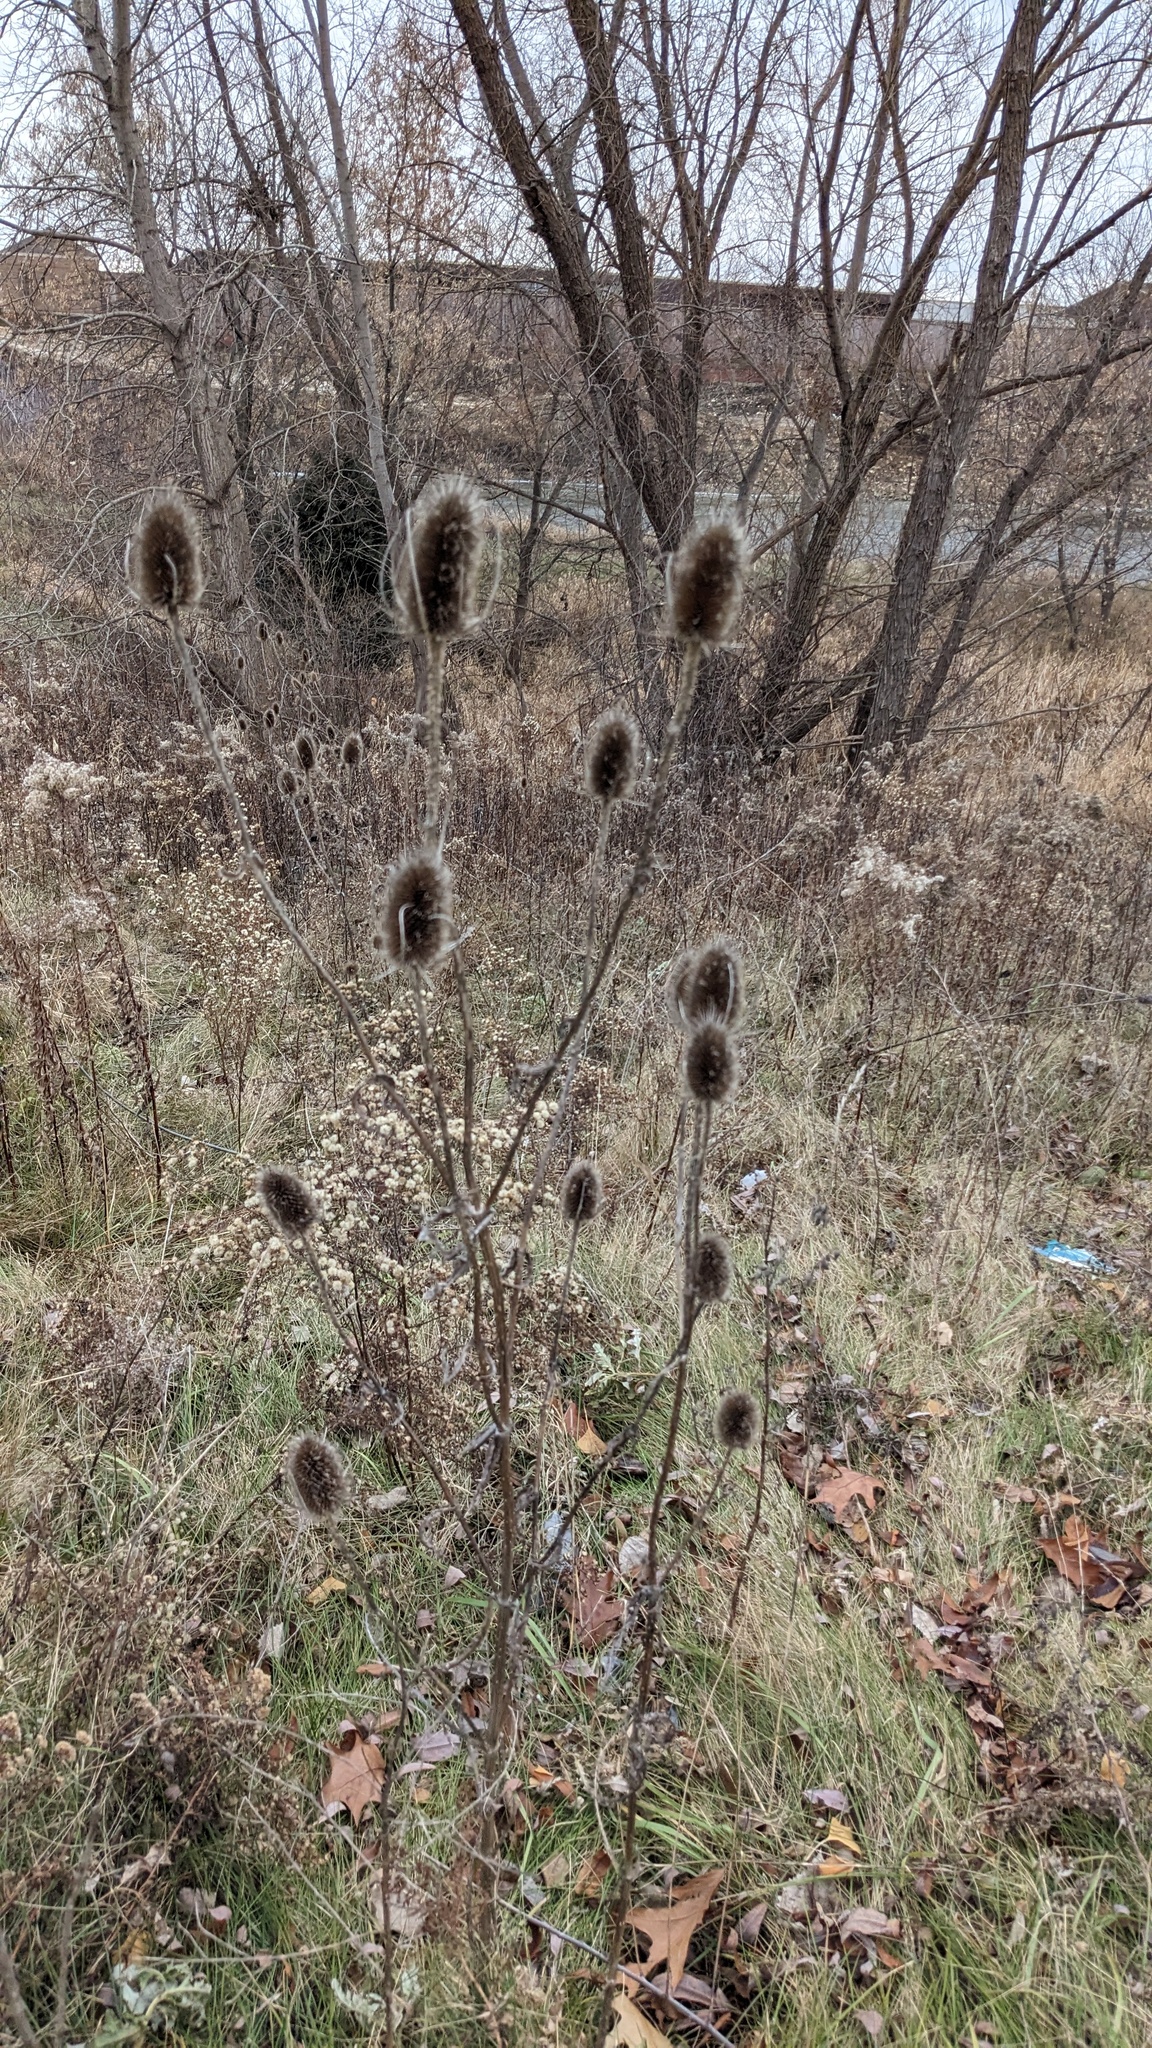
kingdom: Plantae
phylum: Tracheophyta
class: Magnoliopsida
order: Dipsacales
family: Caprifoliaceae
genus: Dipsacus
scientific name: Dipsacus fullonum
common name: Teasel
